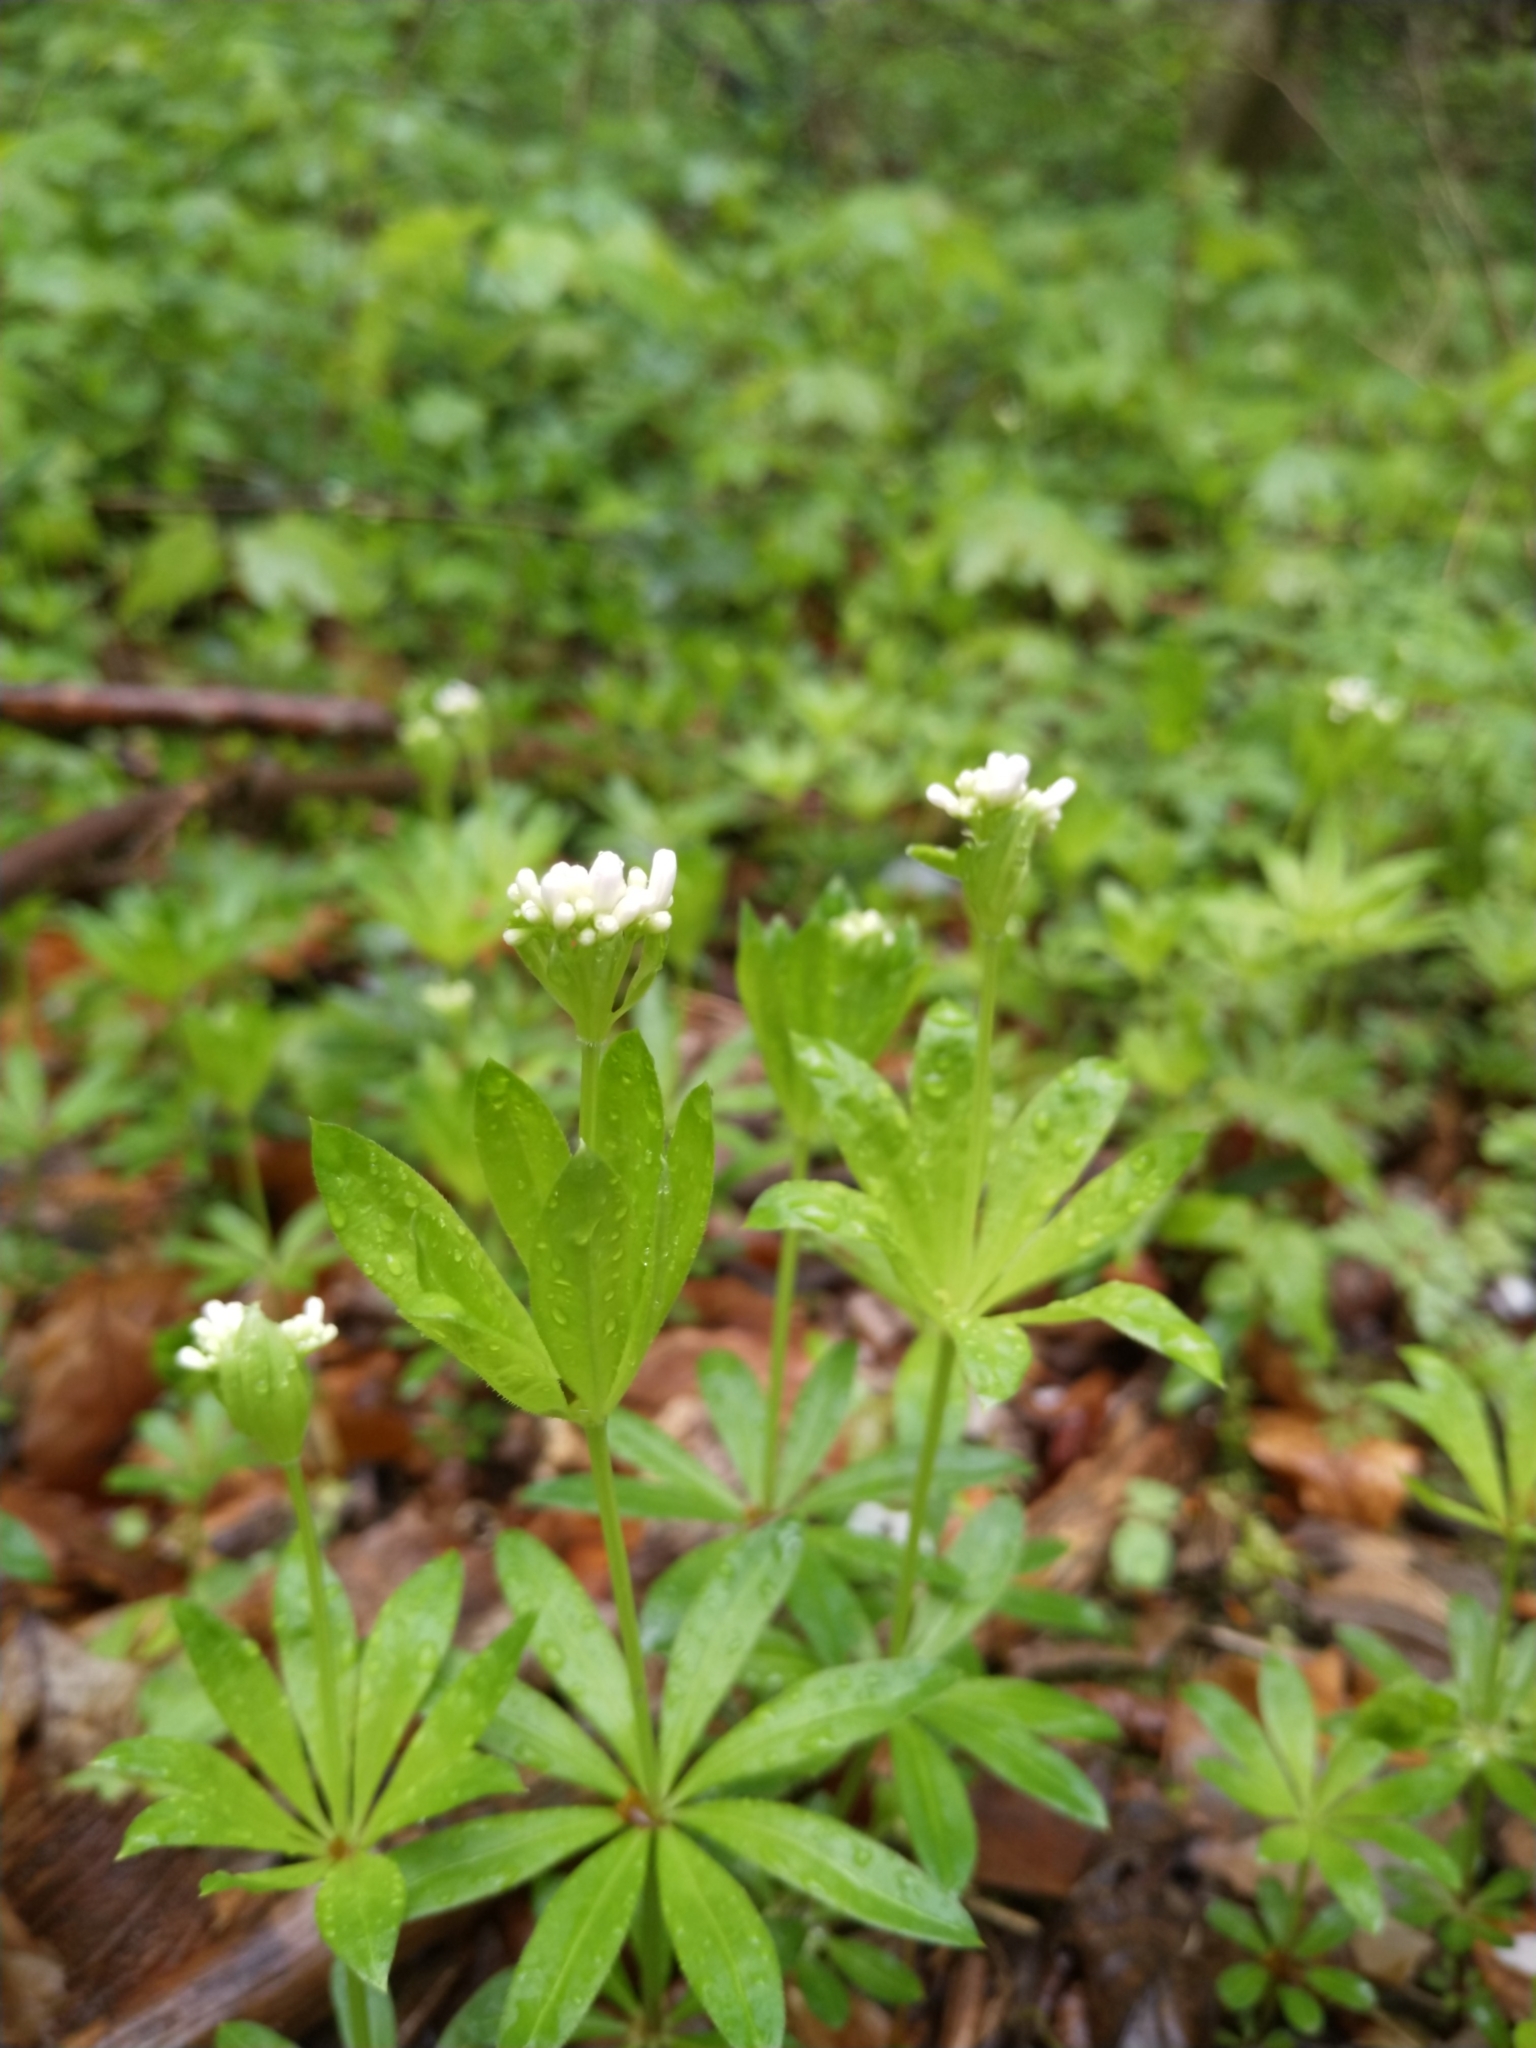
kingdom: Plantae
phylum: Tracheophyta
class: Magnoliopsida
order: Gentianales
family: Rubiaceae
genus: Galium
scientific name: Galium odoratum
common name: Sweet woodruff
